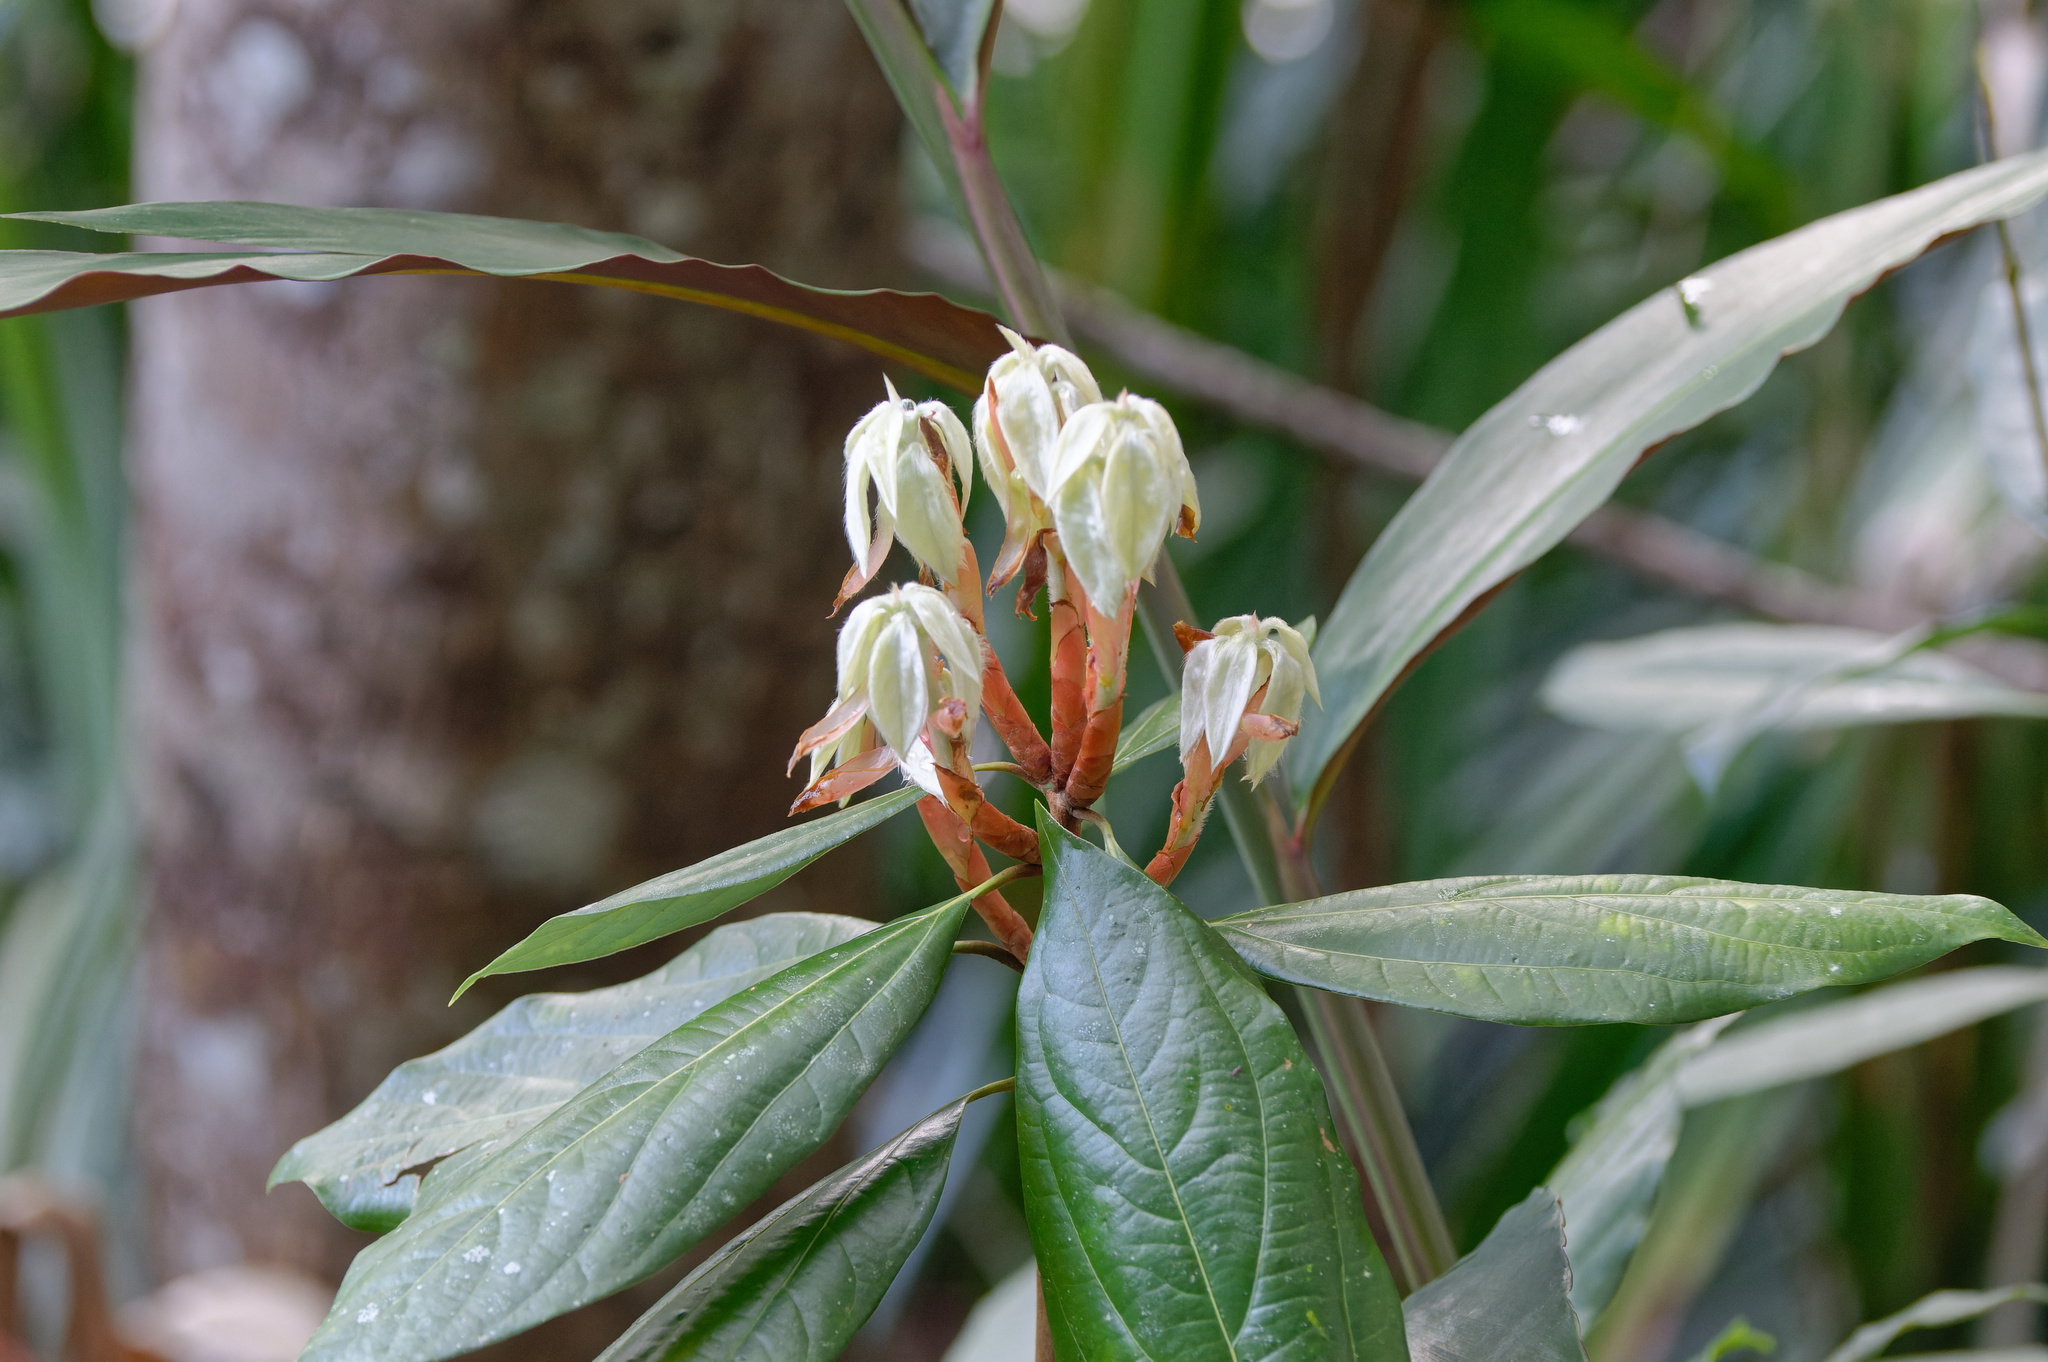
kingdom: Plantae
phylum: Tracheophyta
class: Magnoliopsida
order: Laurales
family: Lauraceae
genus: Neolitsea
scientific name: Neolitsea dealbata
